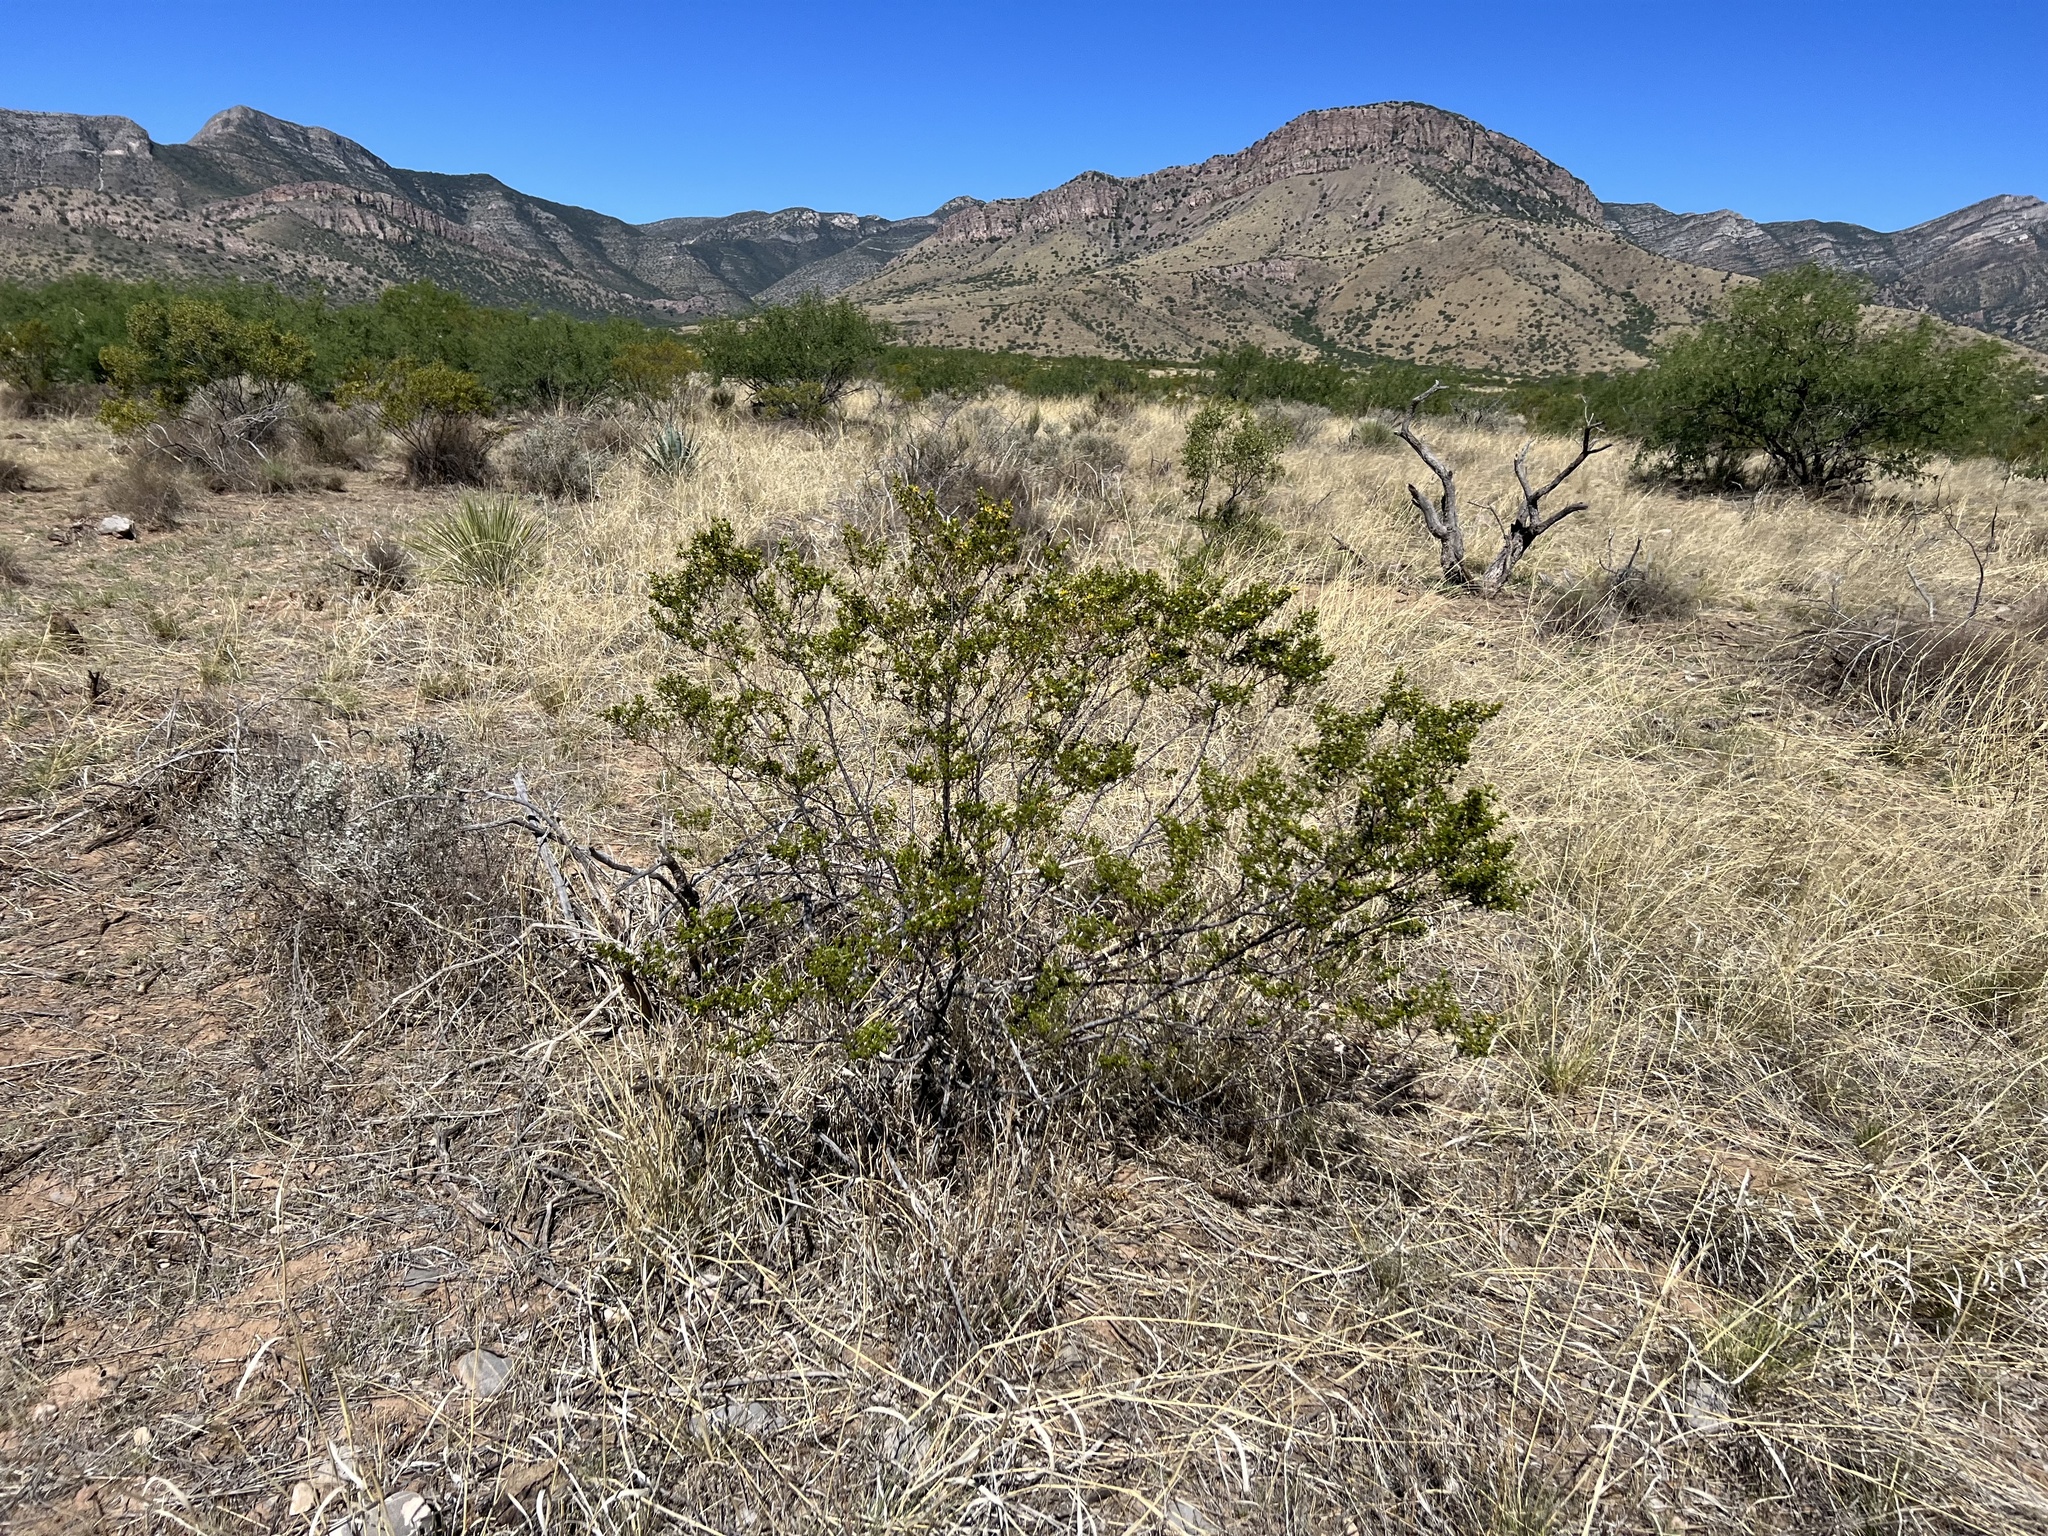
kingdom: Plantae
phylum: Tracheophyta
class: Magnoliopsida
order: Zygophyllales
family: Zygophyllaceae
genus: Larrea
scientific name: Larrea tridentata
